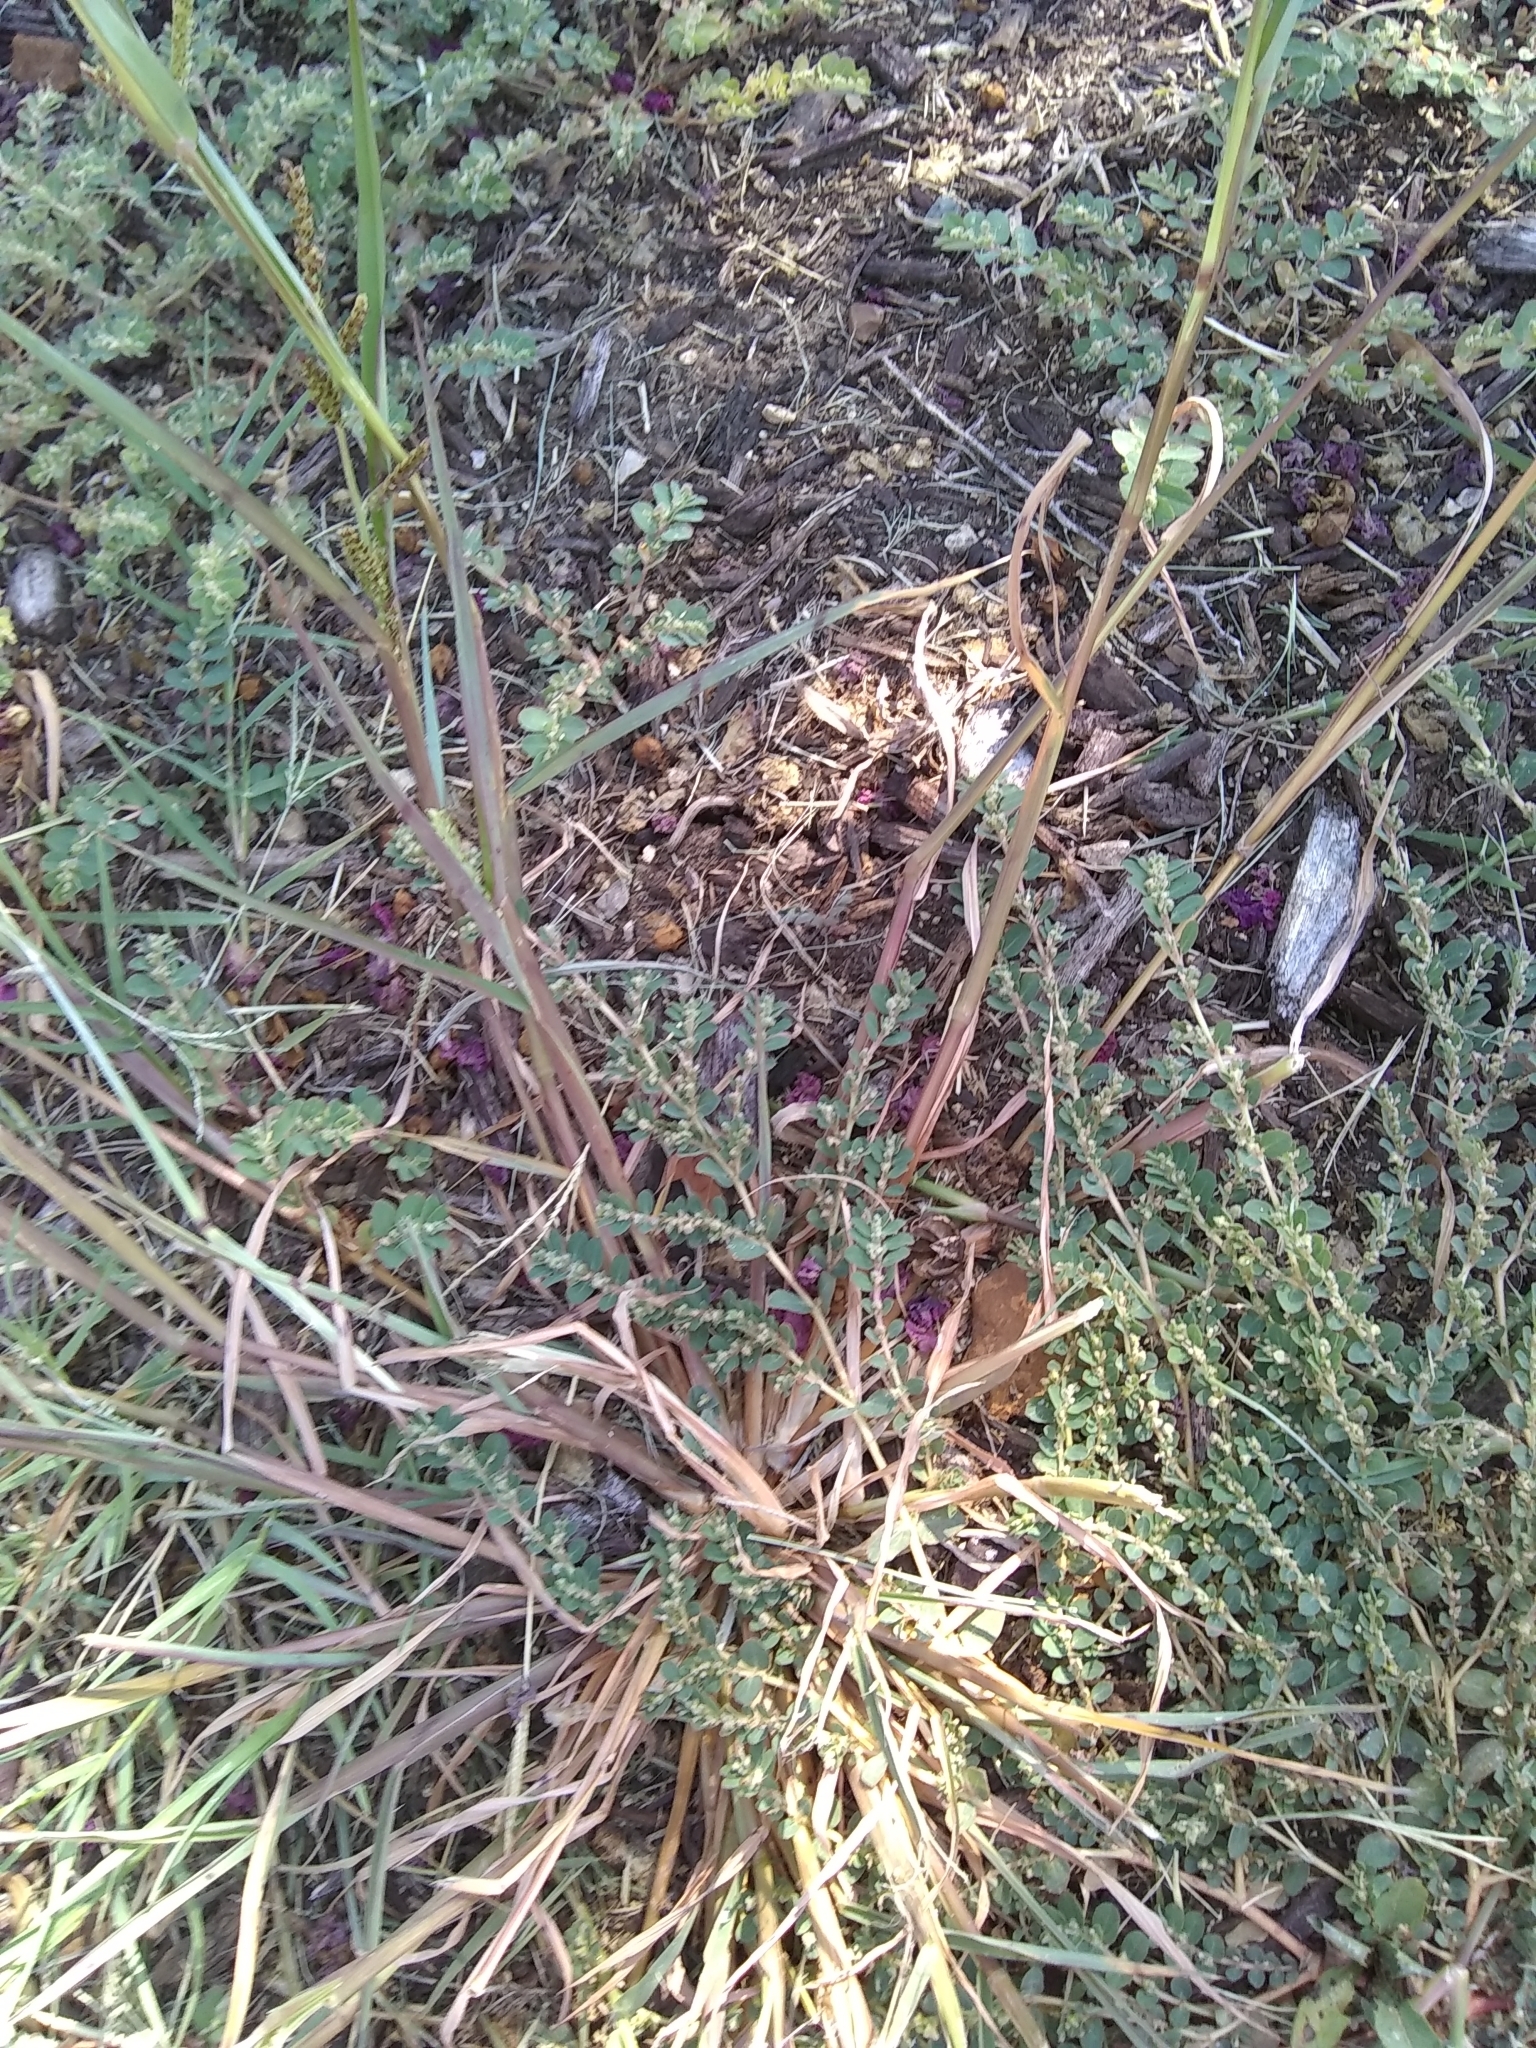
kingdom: Plantae
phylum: Tracheophyta
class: Magnoliopsida
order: Malpighiales
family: Euphorbiaceae
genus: Euphorbia
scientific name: Euphorbia prostrata
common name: Prostrate sandmat
